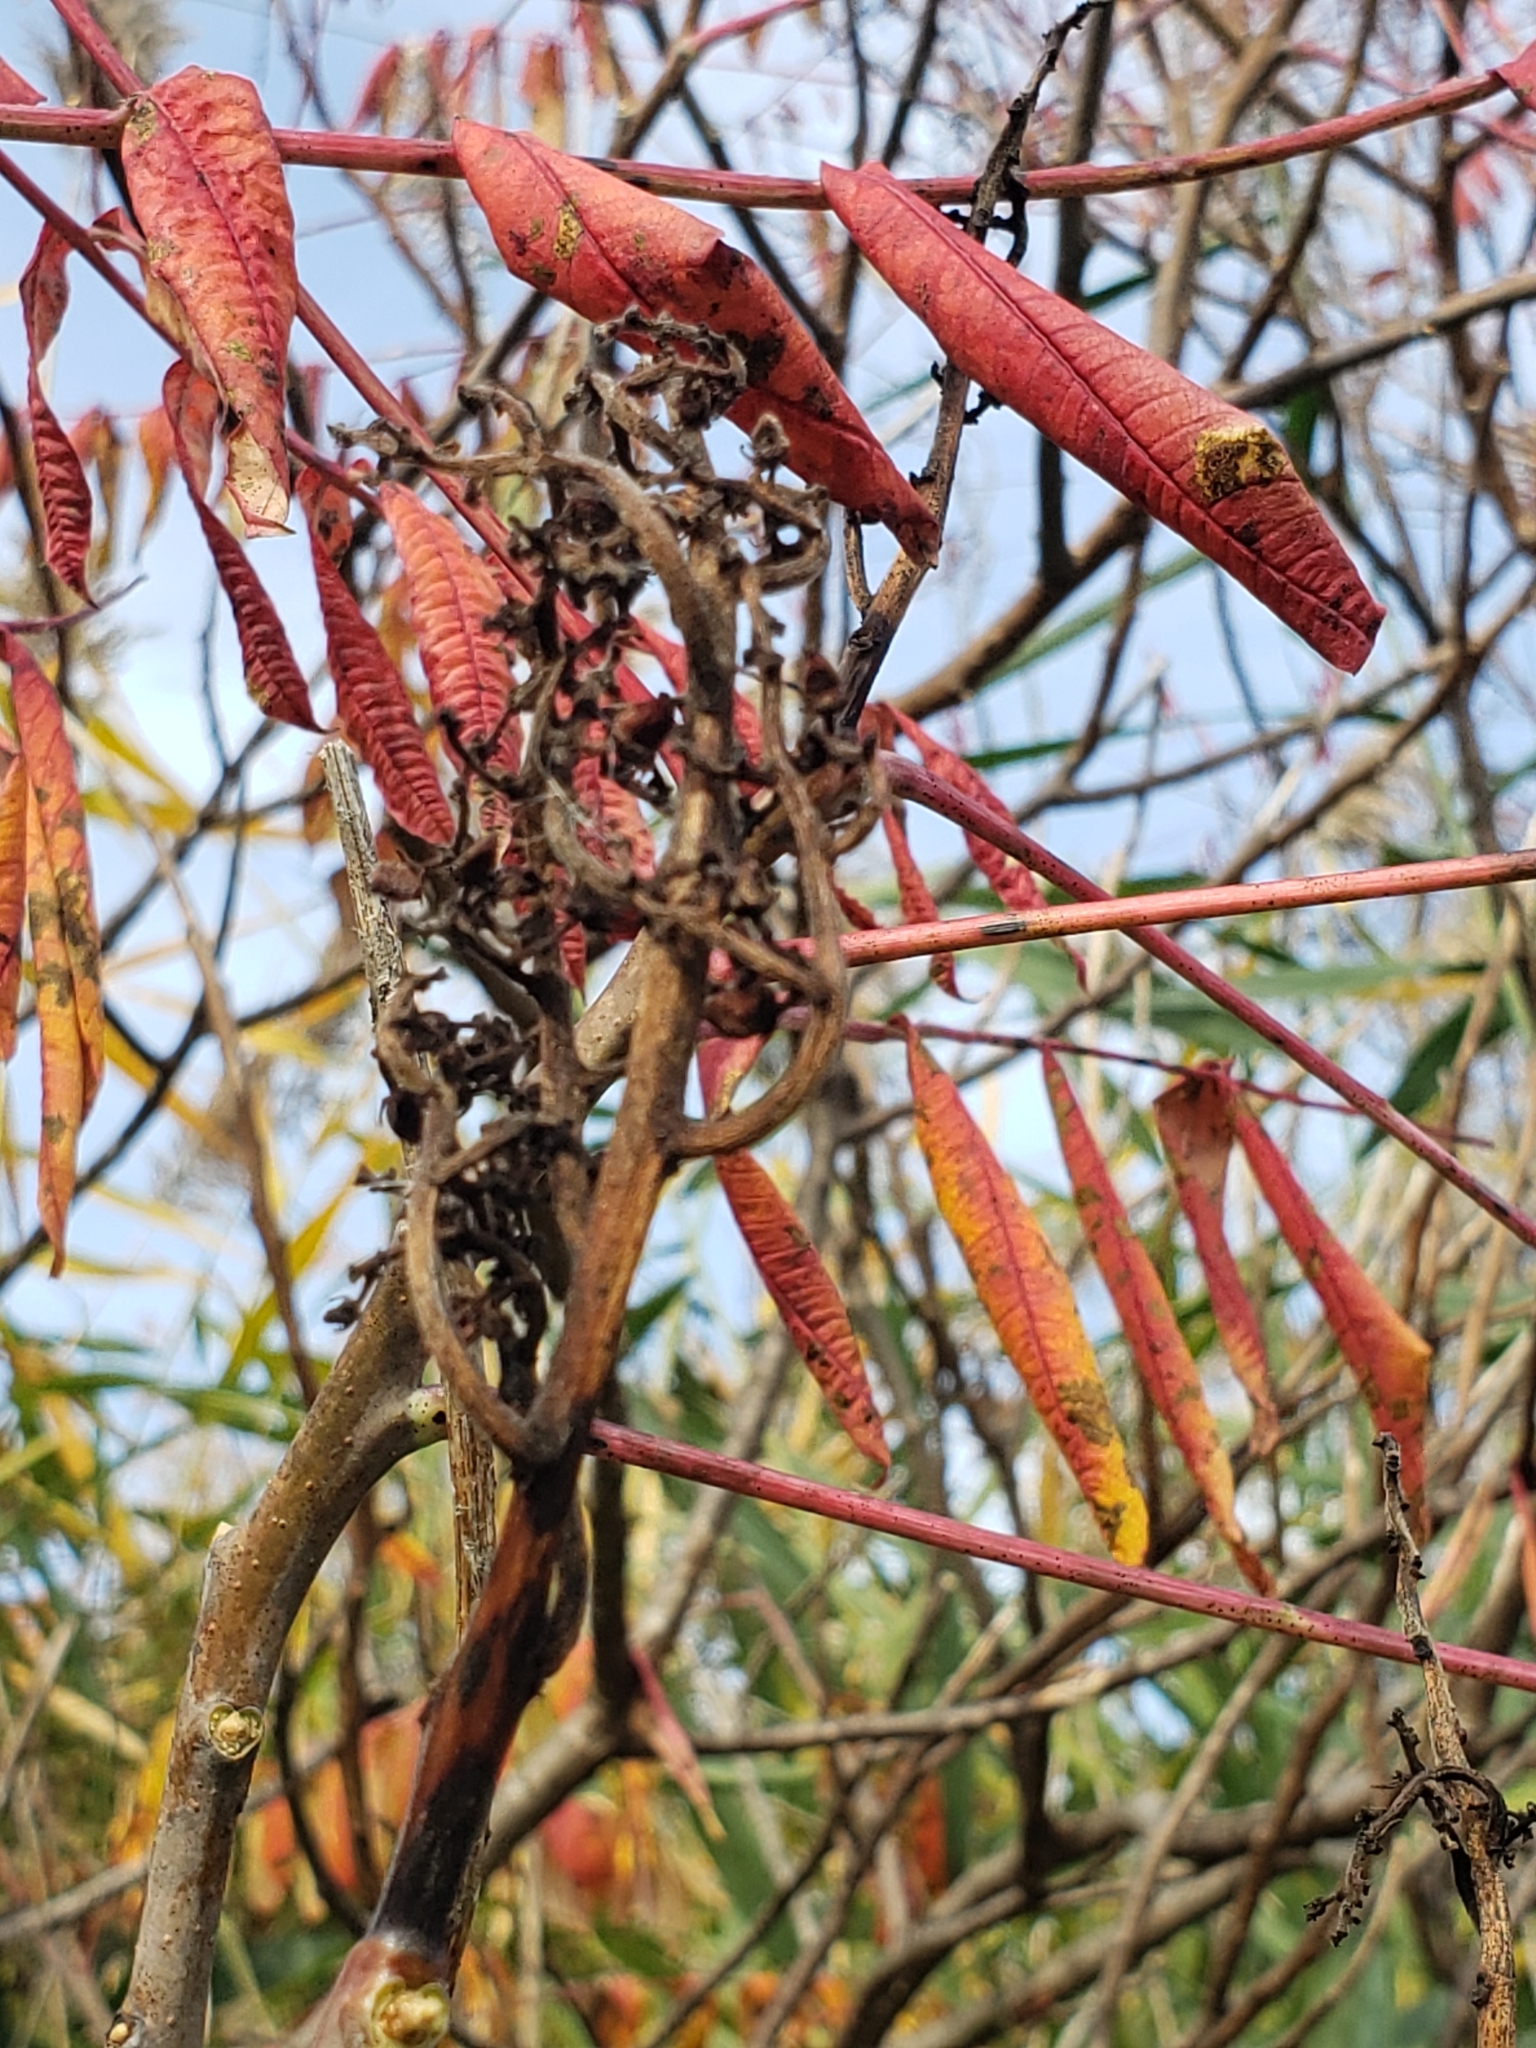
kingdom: Plantae
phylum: Tracheophyta
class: Magnoliopsida
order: Sapindales
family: Anacardiaceae
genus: Rhus
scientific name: Rhus glabra
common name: Scarlet sumac
